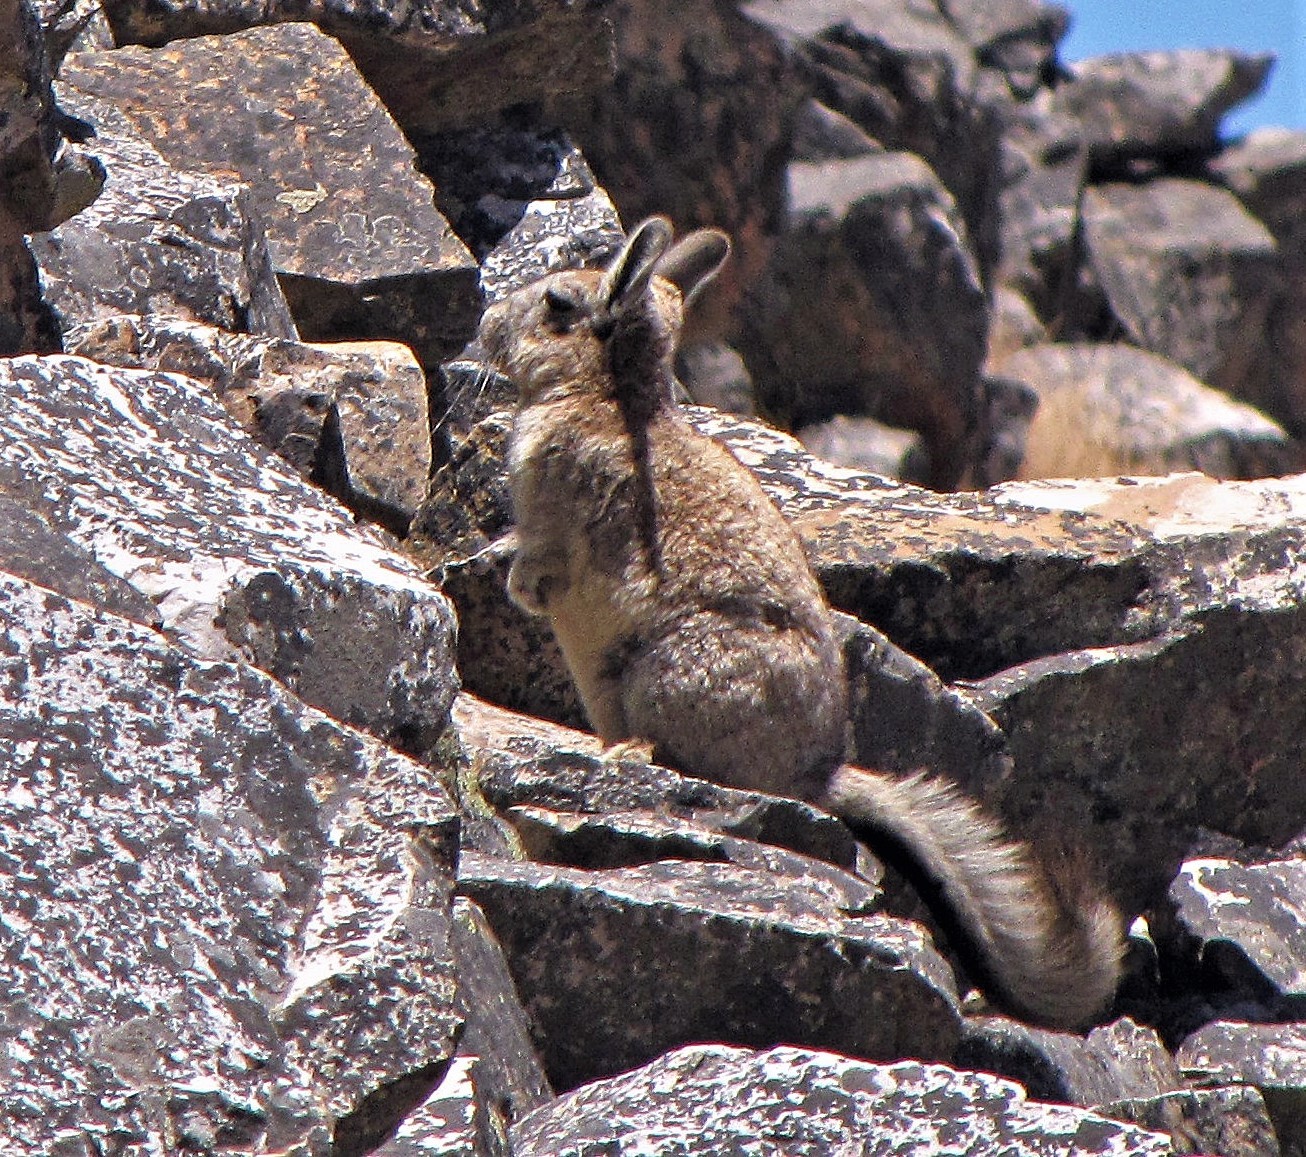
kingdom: Animalia
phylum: Chordata
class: Mammalia
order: Rodentia
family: Chinchillidae
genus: Lagidium
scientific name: Lagidium viscacia
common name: Southern viscacha
